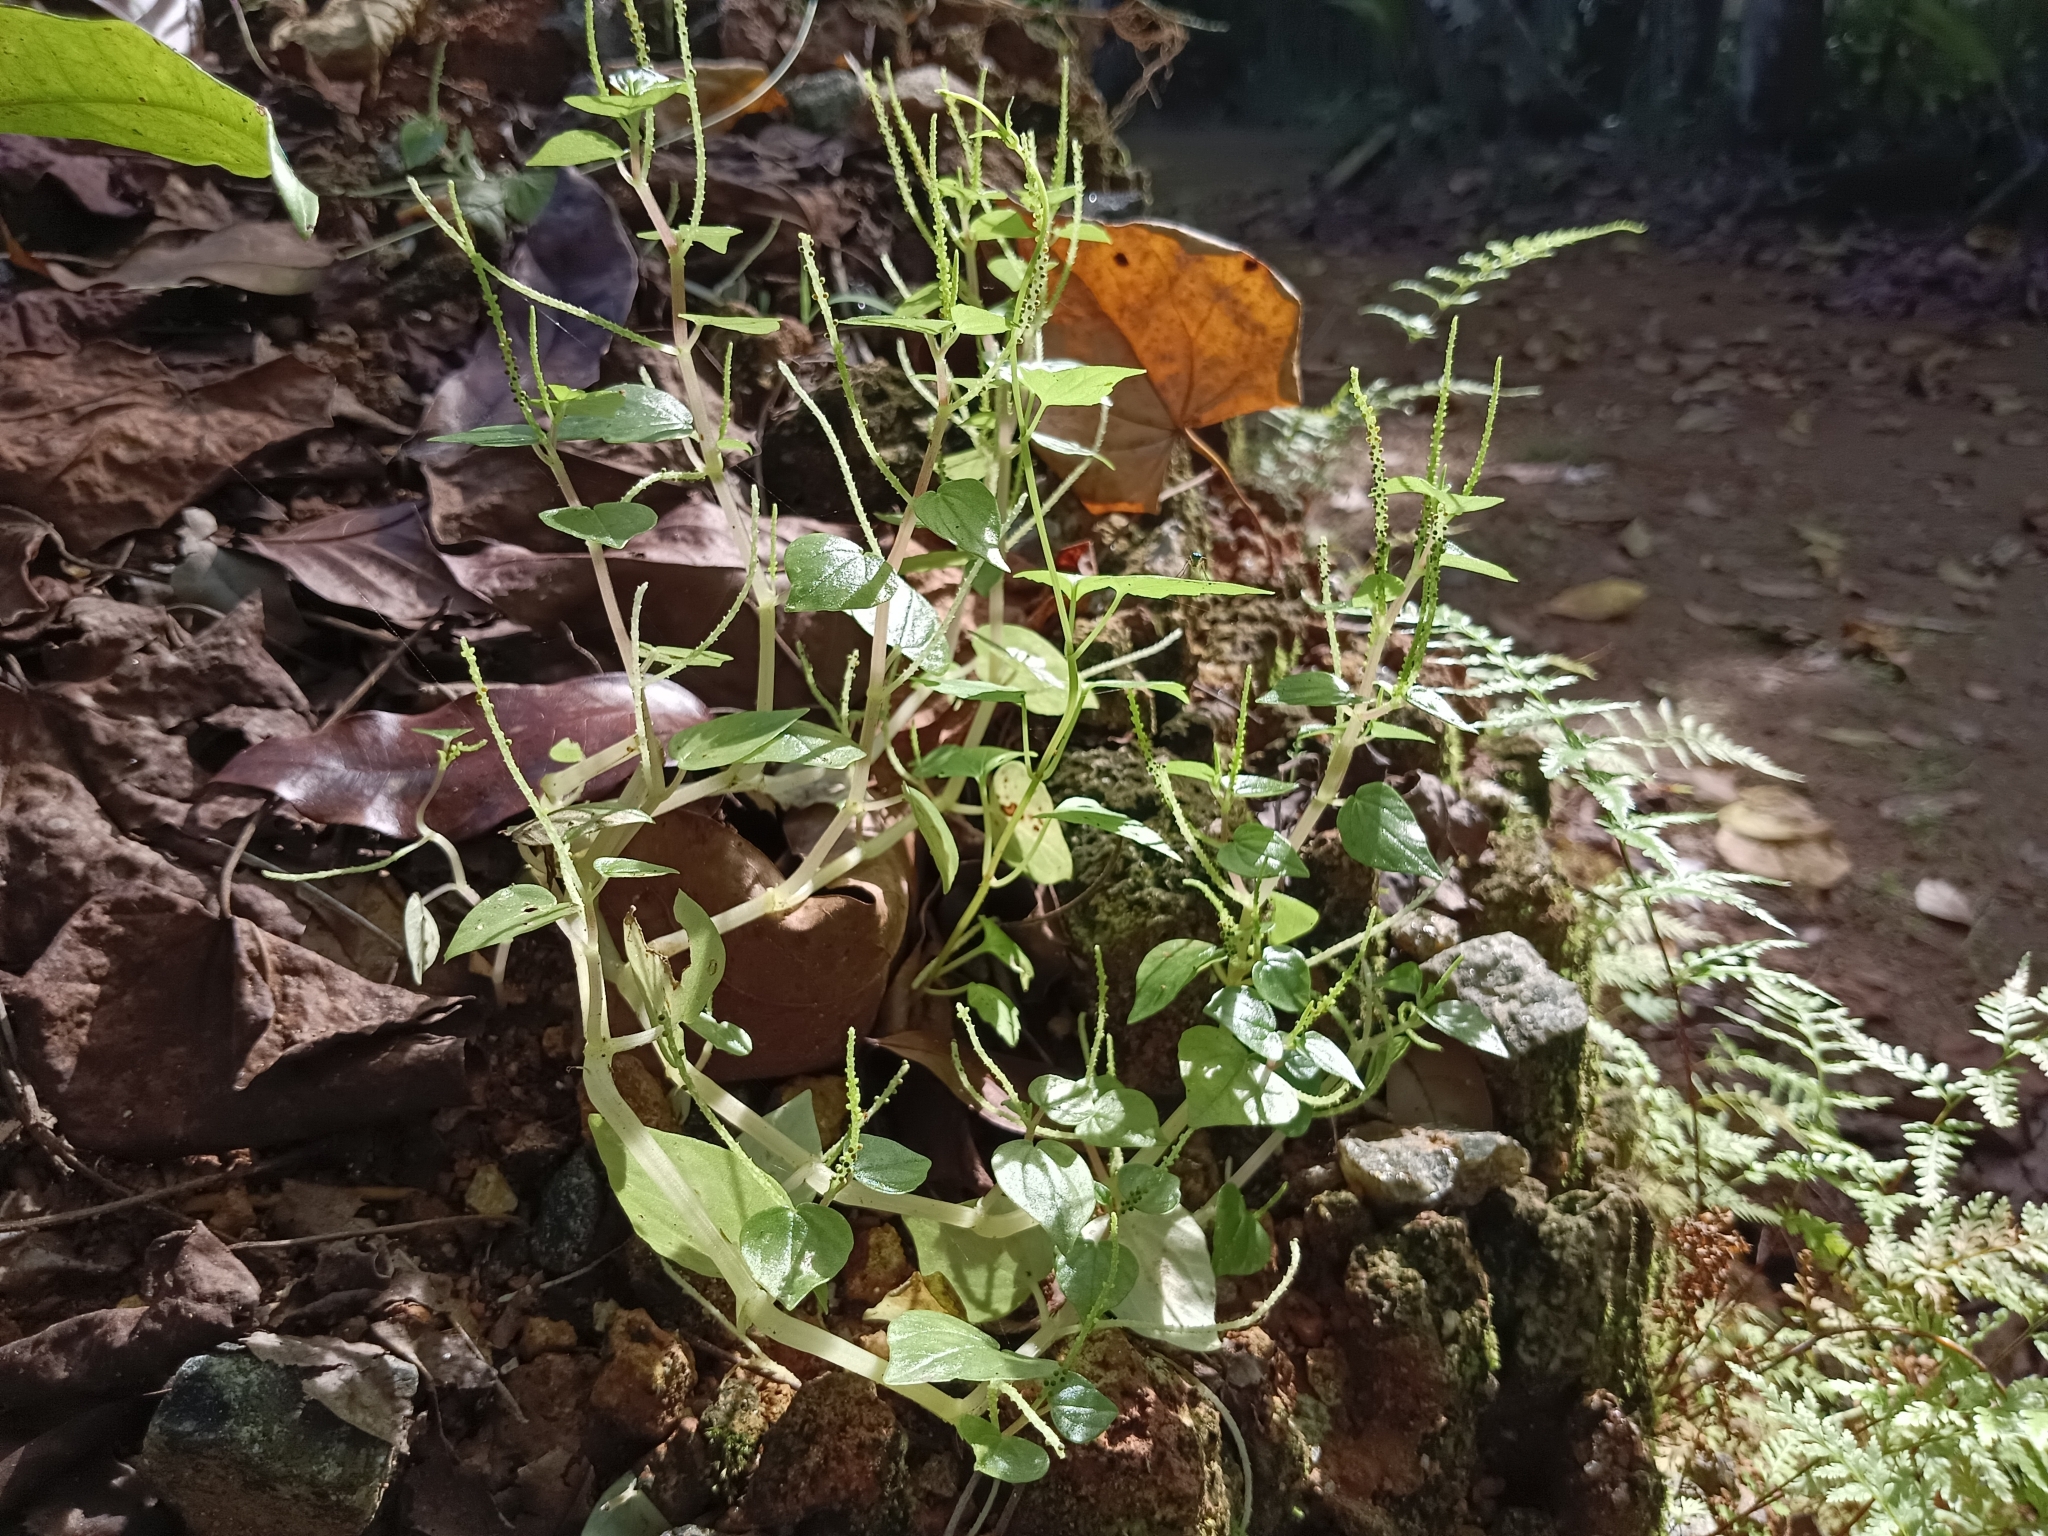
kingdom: Plantae
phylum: Tracheophyta
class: Magnoliopsida
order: Piperales
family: Piperaceae
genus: Peperomia
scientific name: Peperomia pellucida
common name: Man to man
